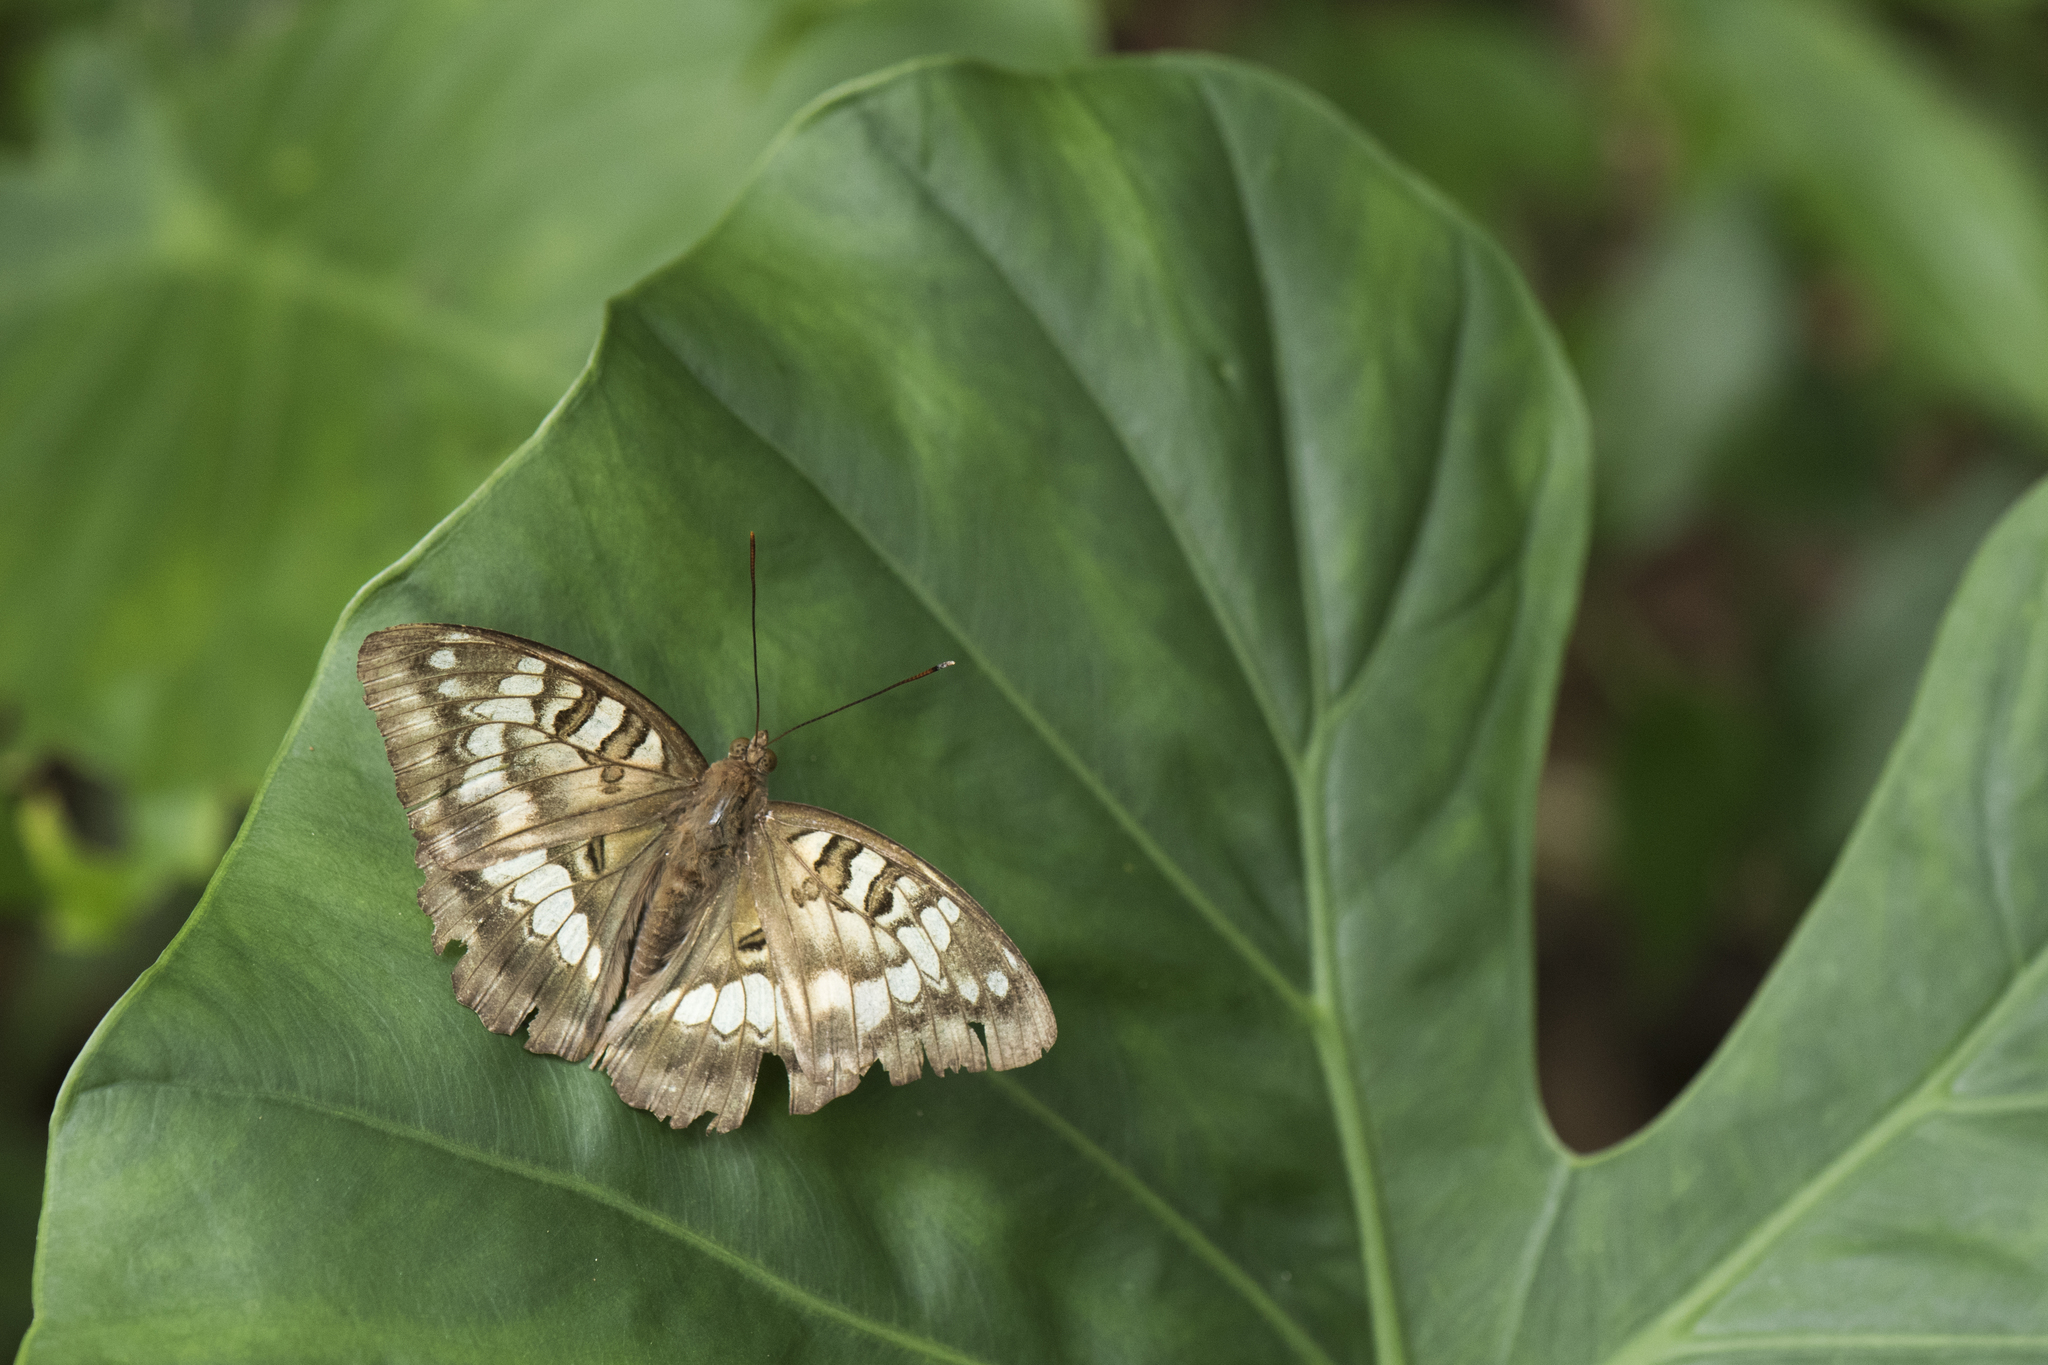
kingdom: Animalia
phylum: Arthropoda
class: Insecta
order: Lepidoptera
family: Nymphalidae
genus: Euthalia
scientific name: Euthalia kosempona
